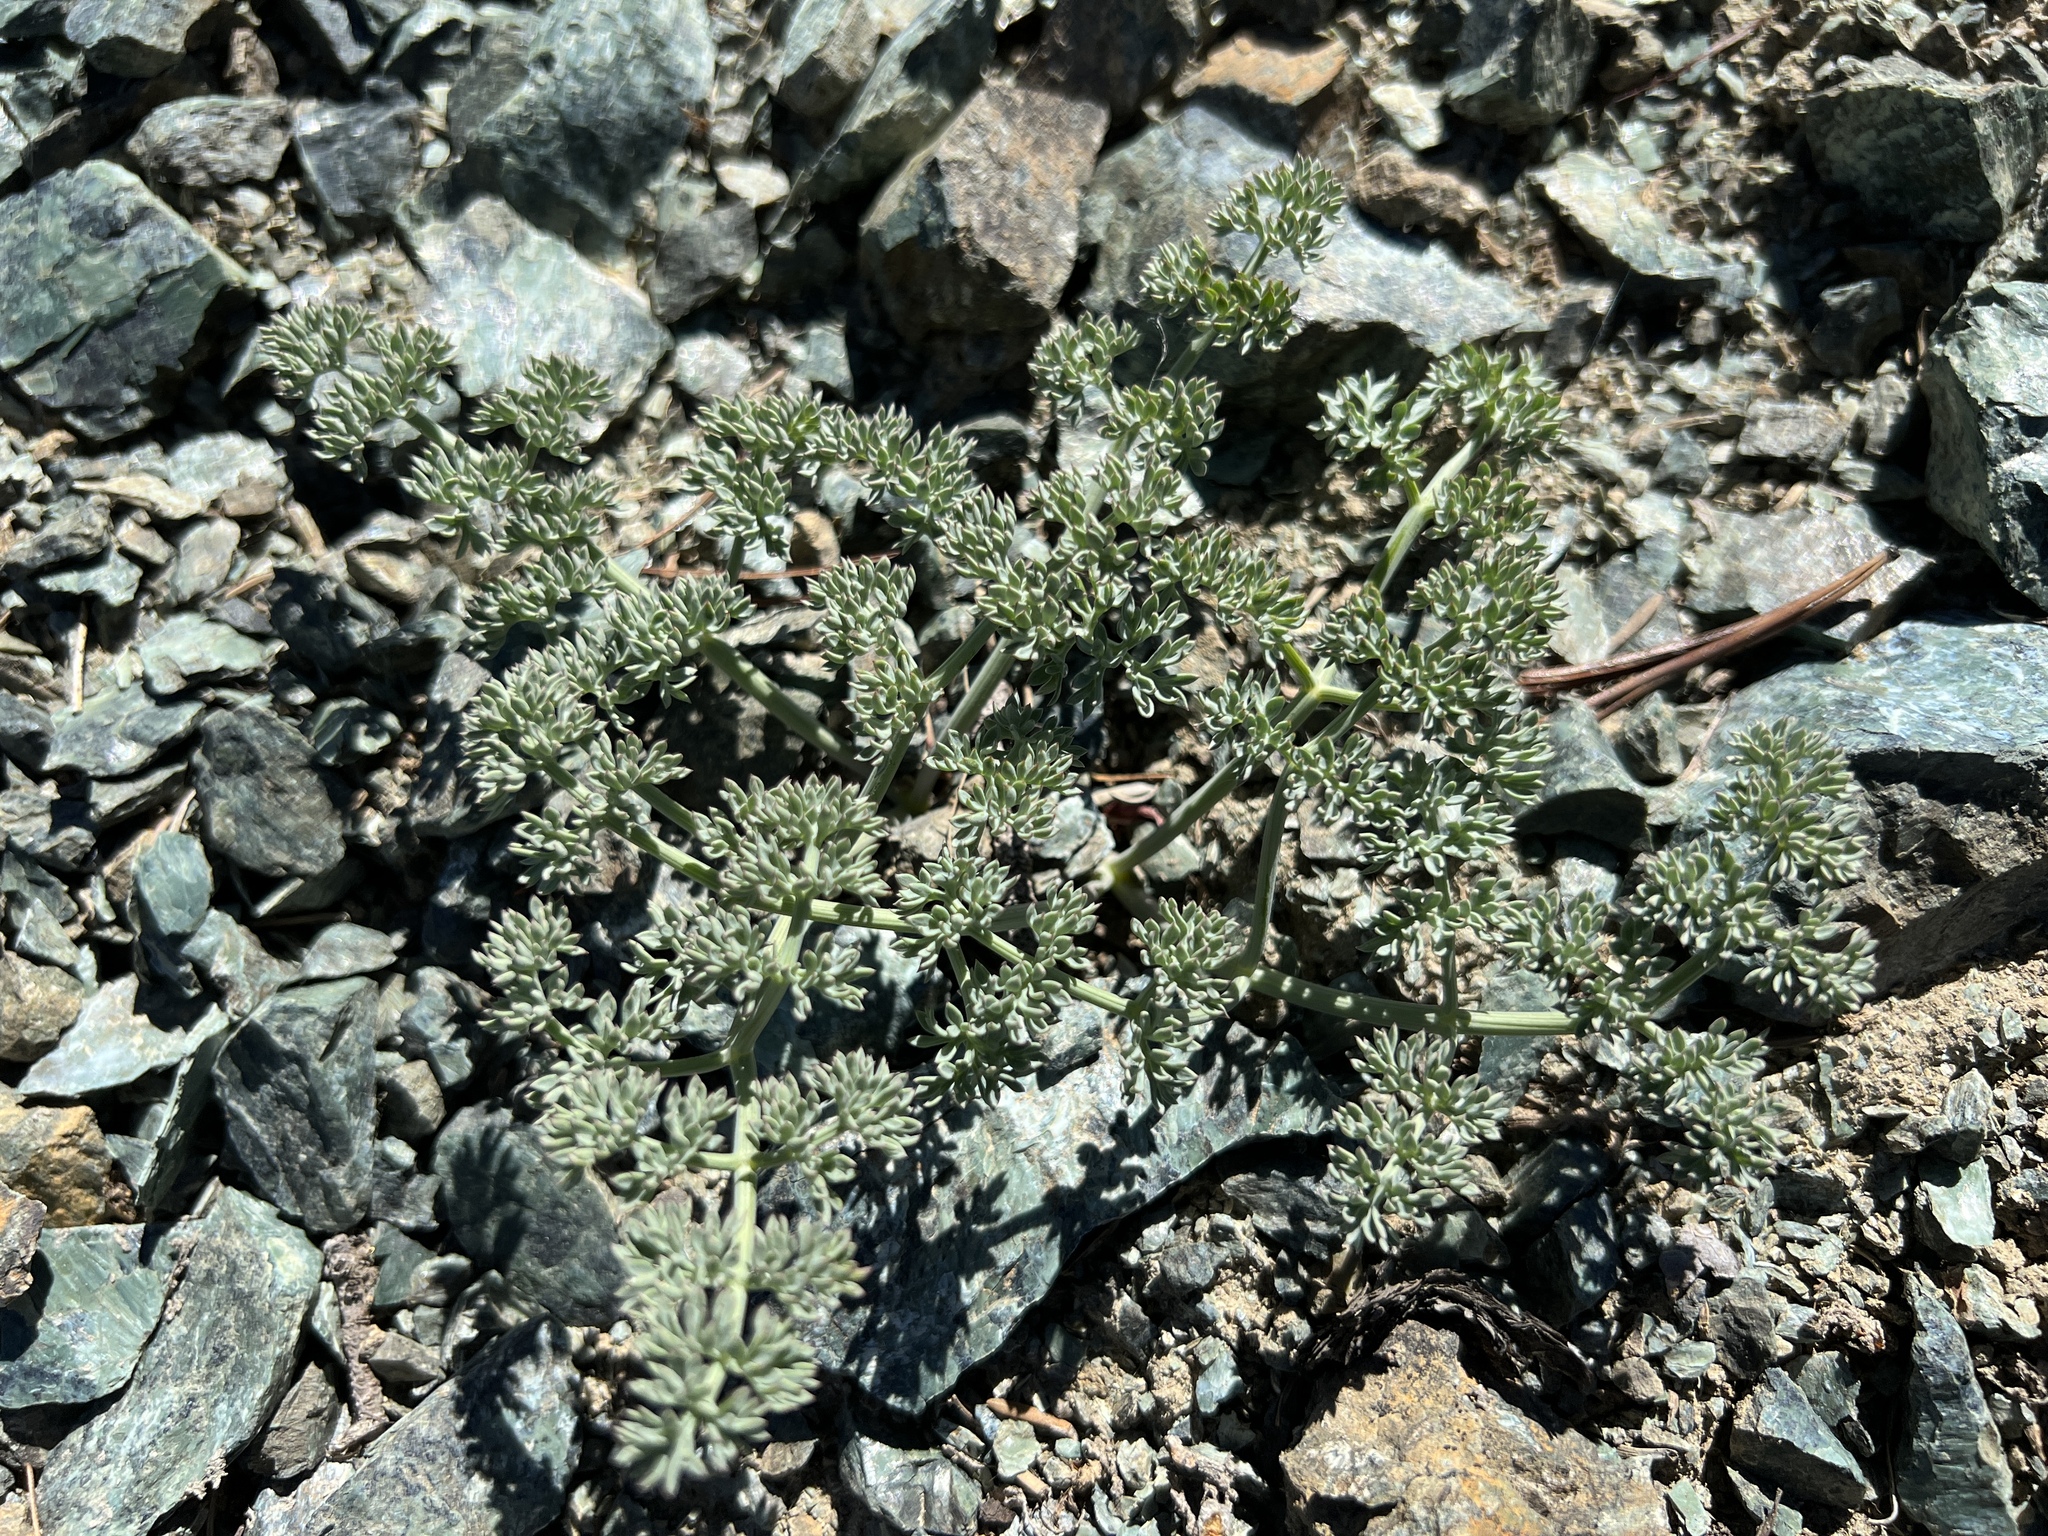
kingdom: Plantae
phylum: Tracheophyta
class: Magnoliopsida
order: Apiales
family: Apiaceae
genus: Lomatium
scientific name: Lomatium cuspidatum
